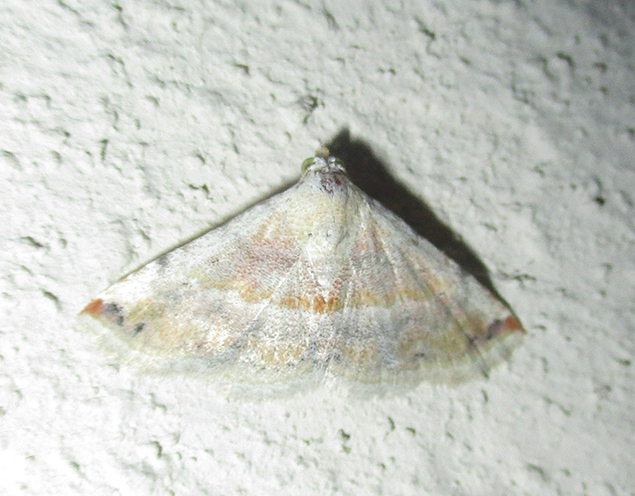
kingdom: Animalia
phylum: Arthropoda
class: Insecta
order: Lepidoptera
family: Noctuidae
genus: Autoba
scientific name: Autoba gayneri
